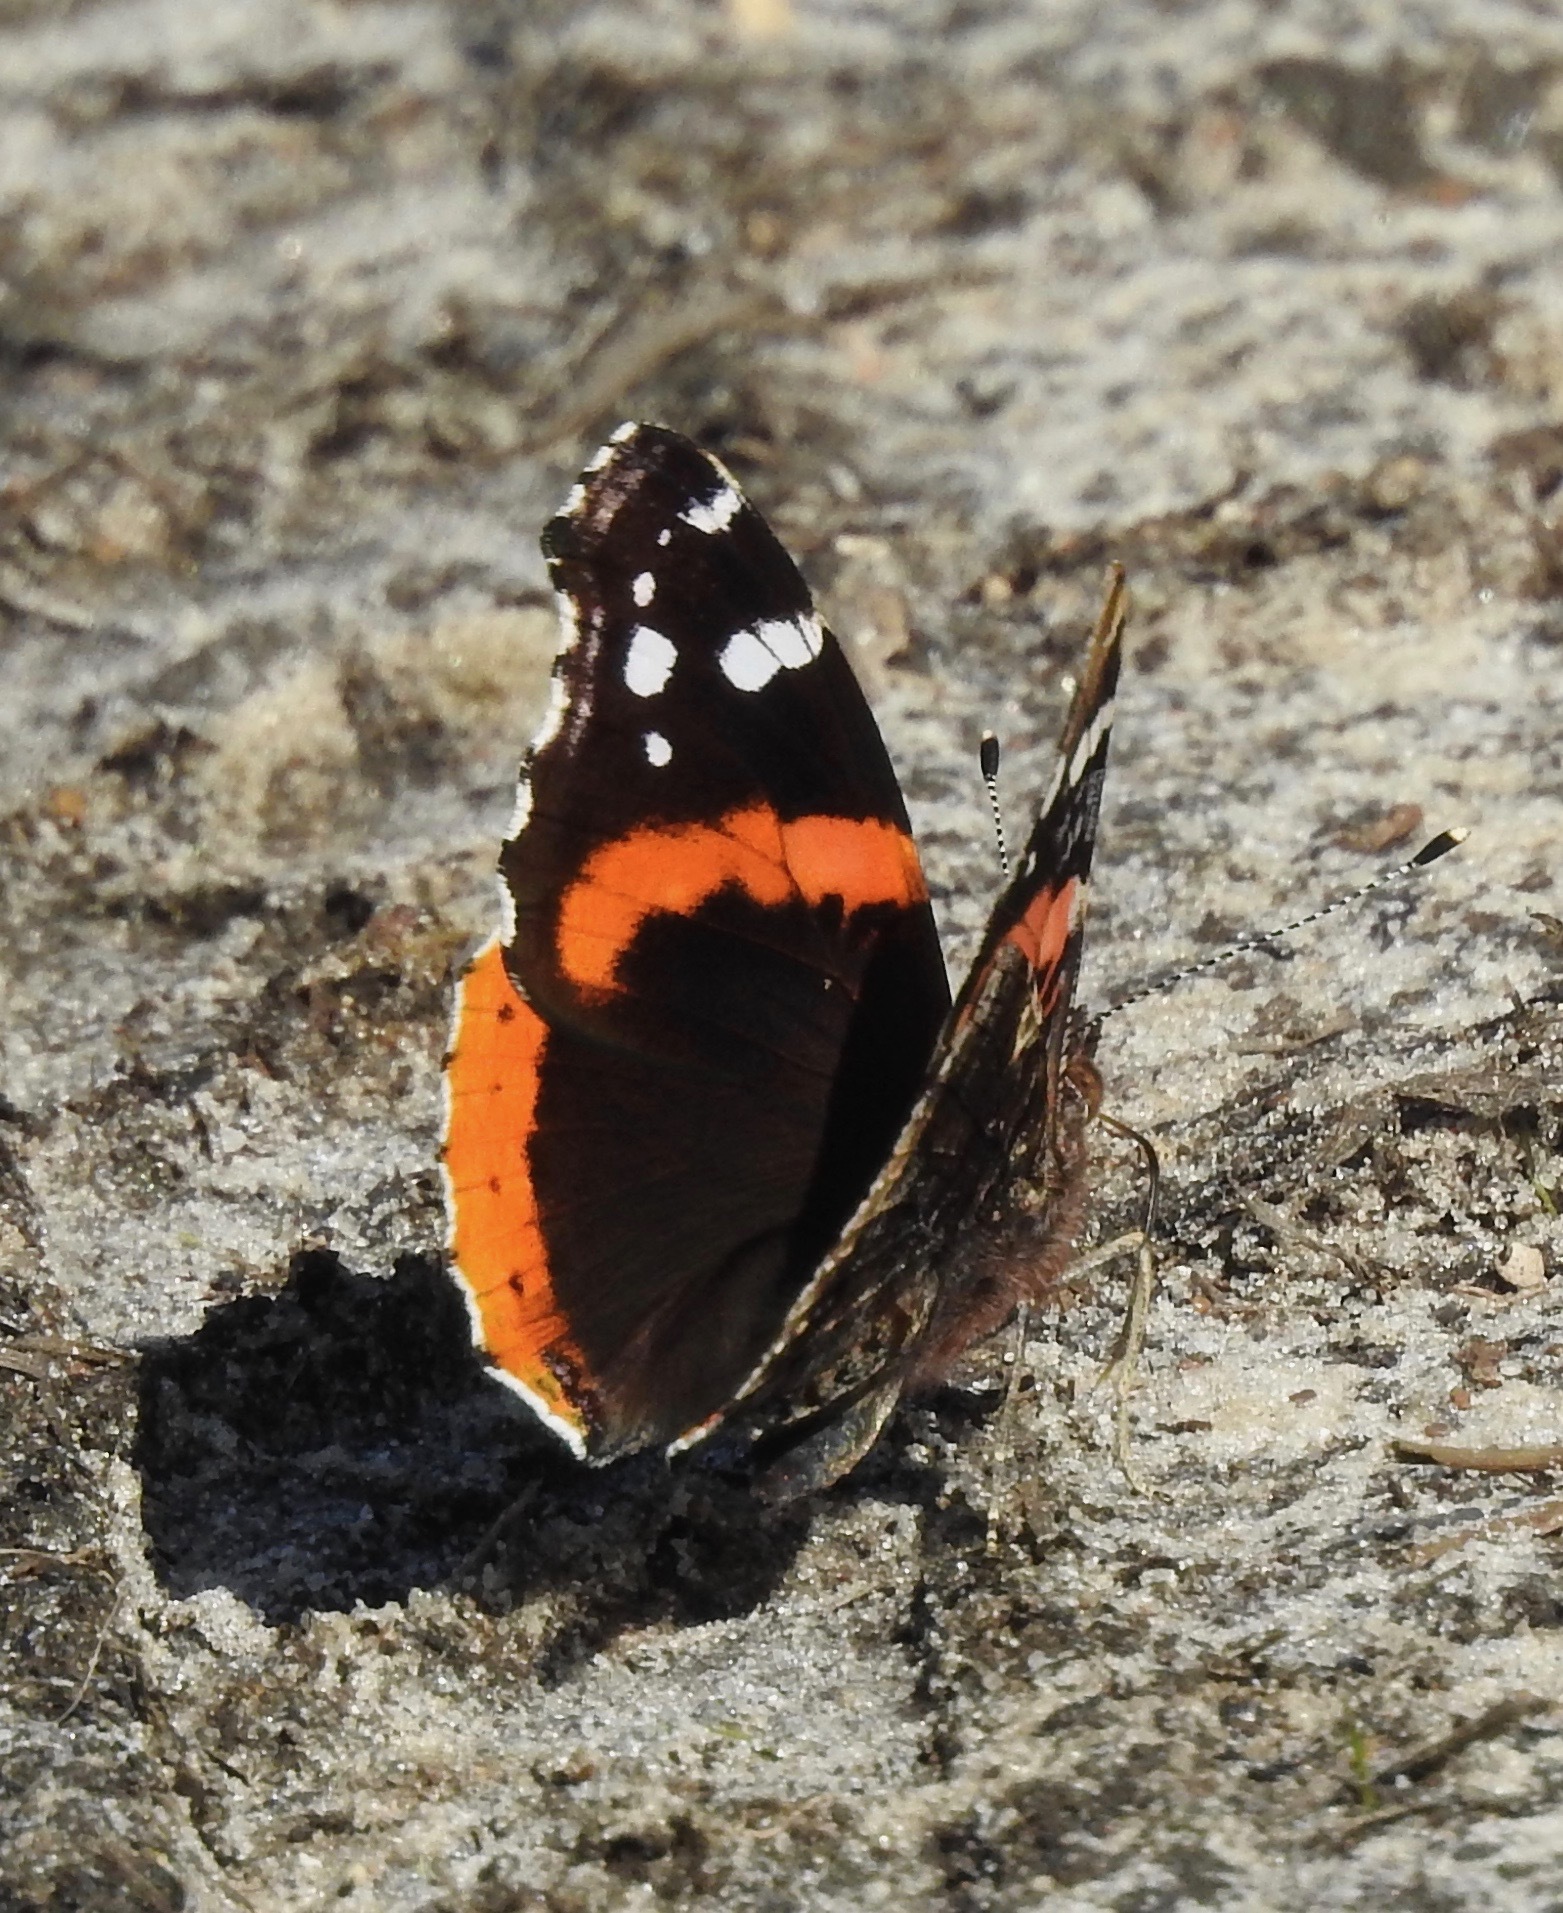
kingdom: Animalia
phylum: Arthropoda
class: Insecta
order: Lepidoptera
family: Nymphalidae
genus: Vanessa
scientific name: Vanessa atalanta
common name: Red admiral
